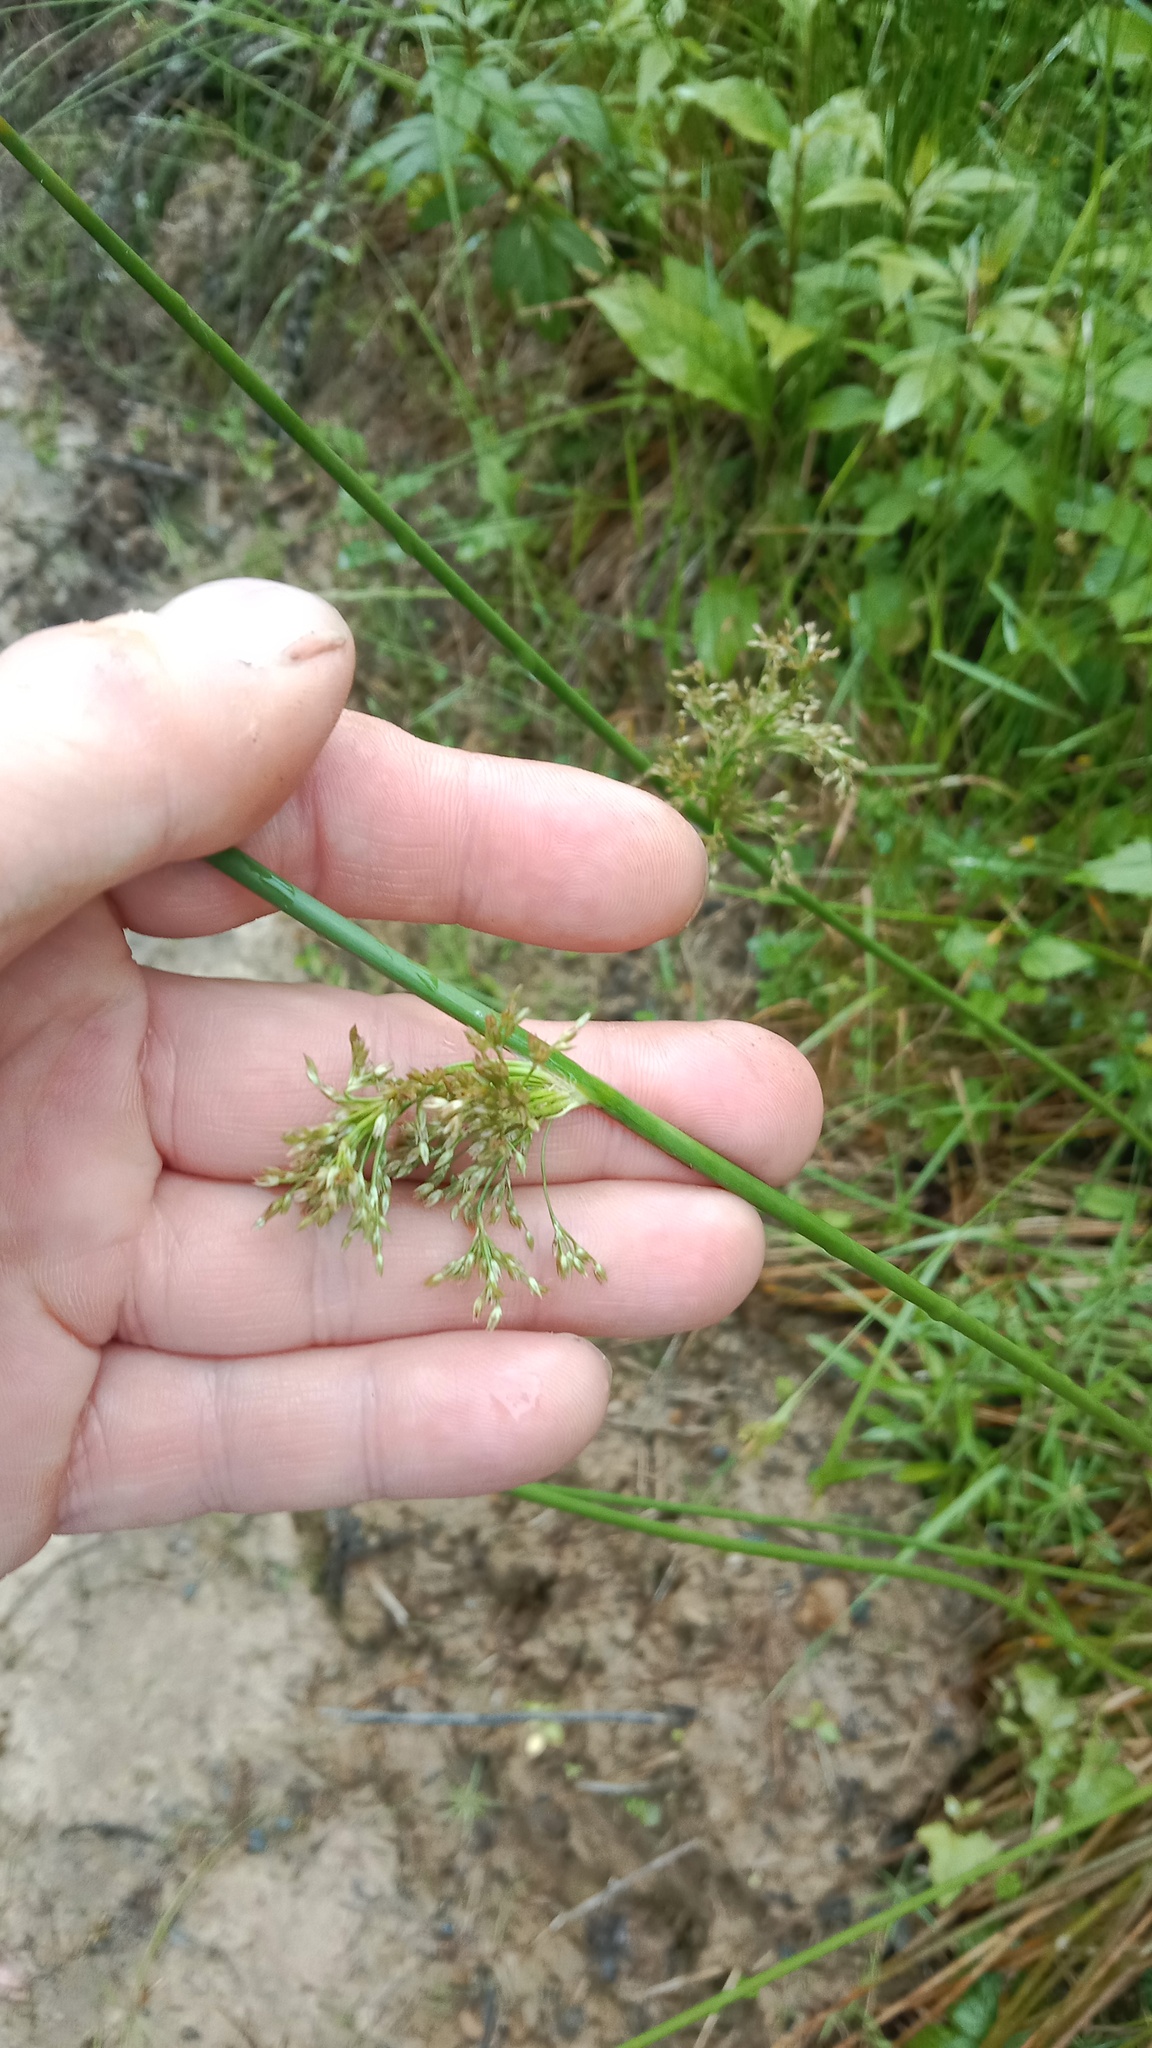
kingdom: Plantae
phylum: Tracheophyta
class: Liliopsida
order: Poales
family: Juncaceae
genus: Juncus
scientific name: Juncus effusus
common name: Soft rush
